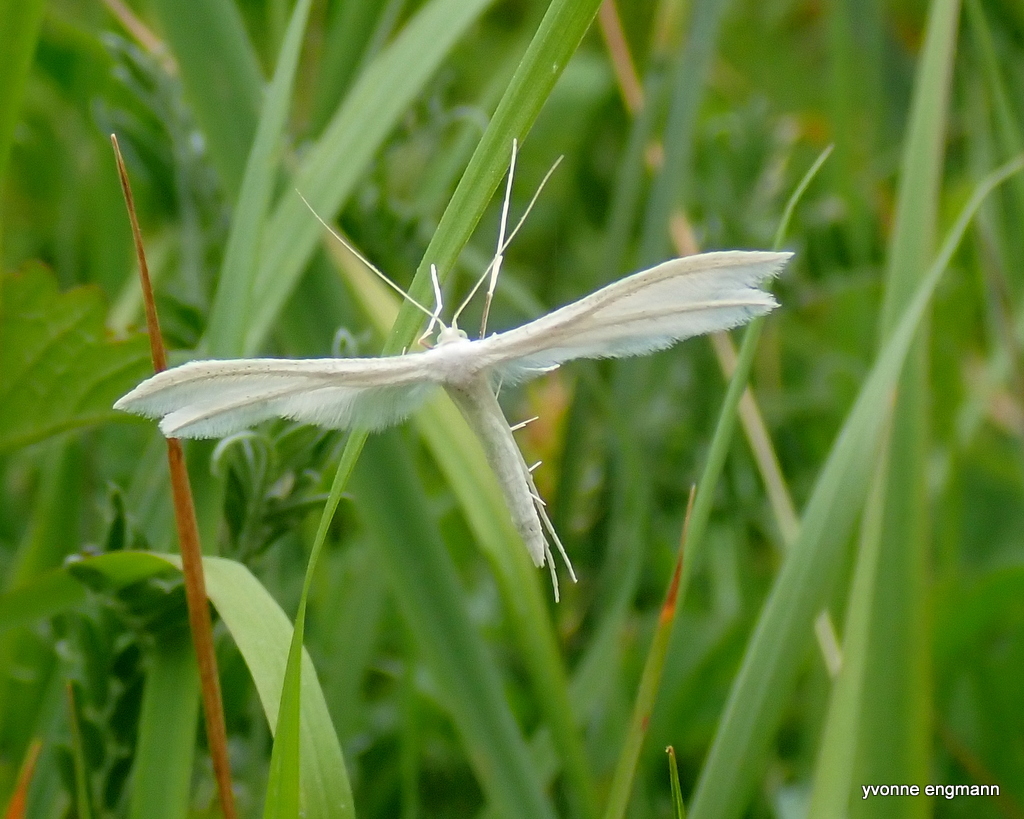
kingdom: Animalia
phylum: Arthropoda
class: Insecta
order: Lepidoptera
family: Pterophoridae
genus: Pterophorus
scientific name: Pterophorus pentadactyla
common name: White plume moth
